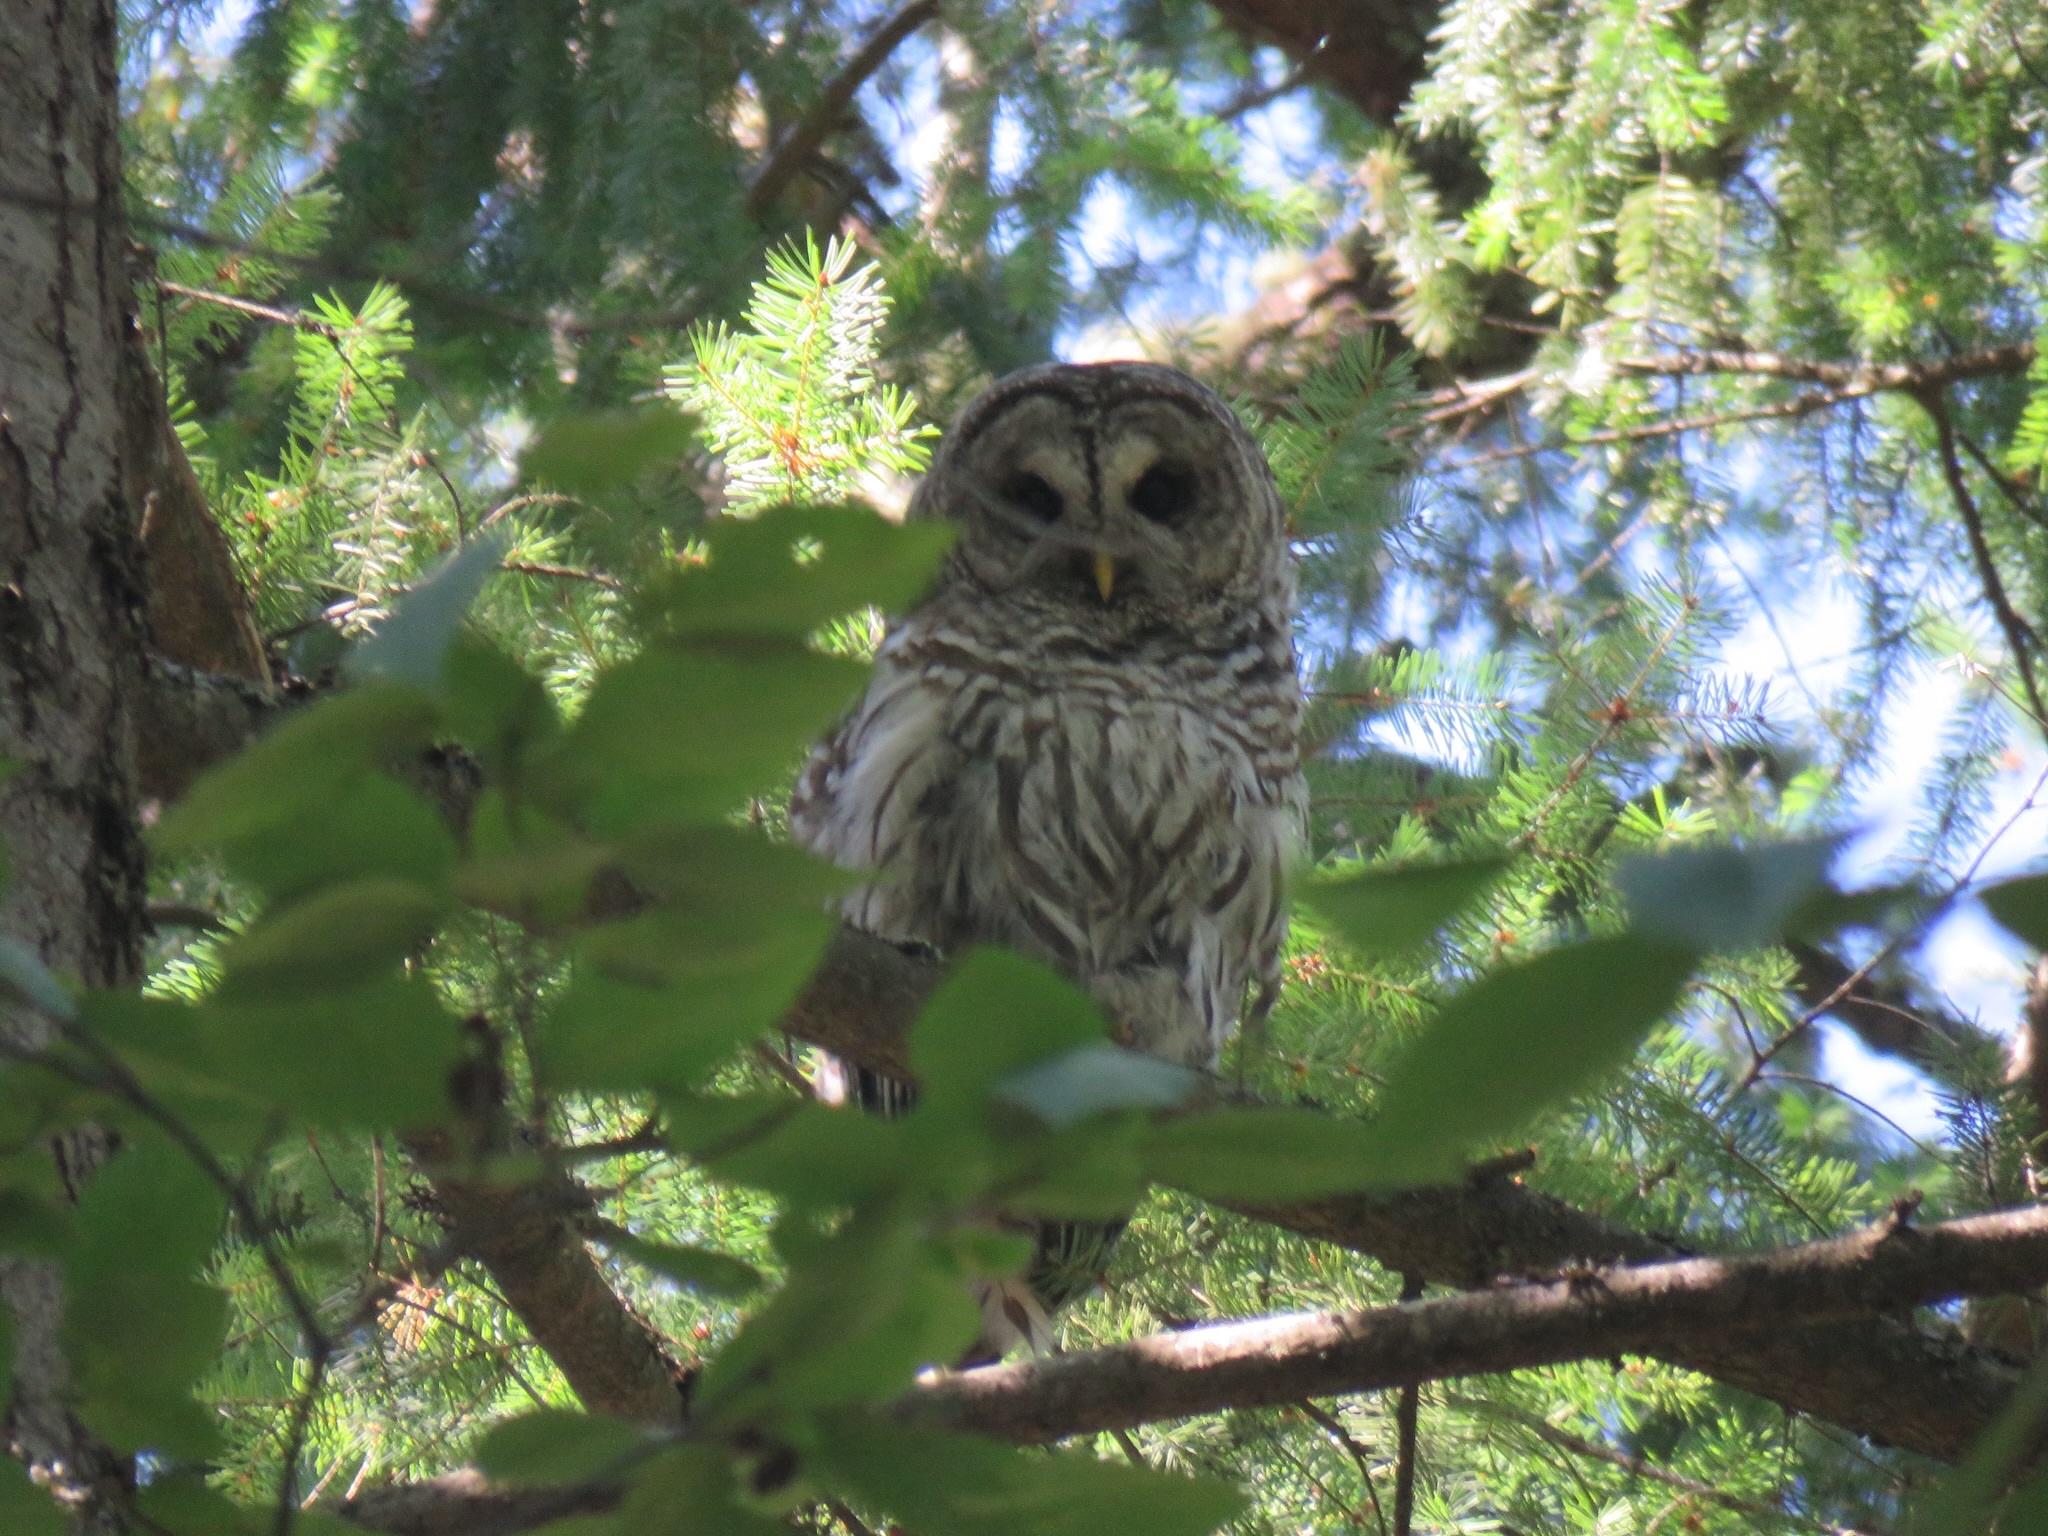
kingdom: Animalia
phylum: Chordata
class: Aves
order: Strigiformes
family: Strigidae
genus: Strix
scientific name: Strix varia
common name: Barred owl
